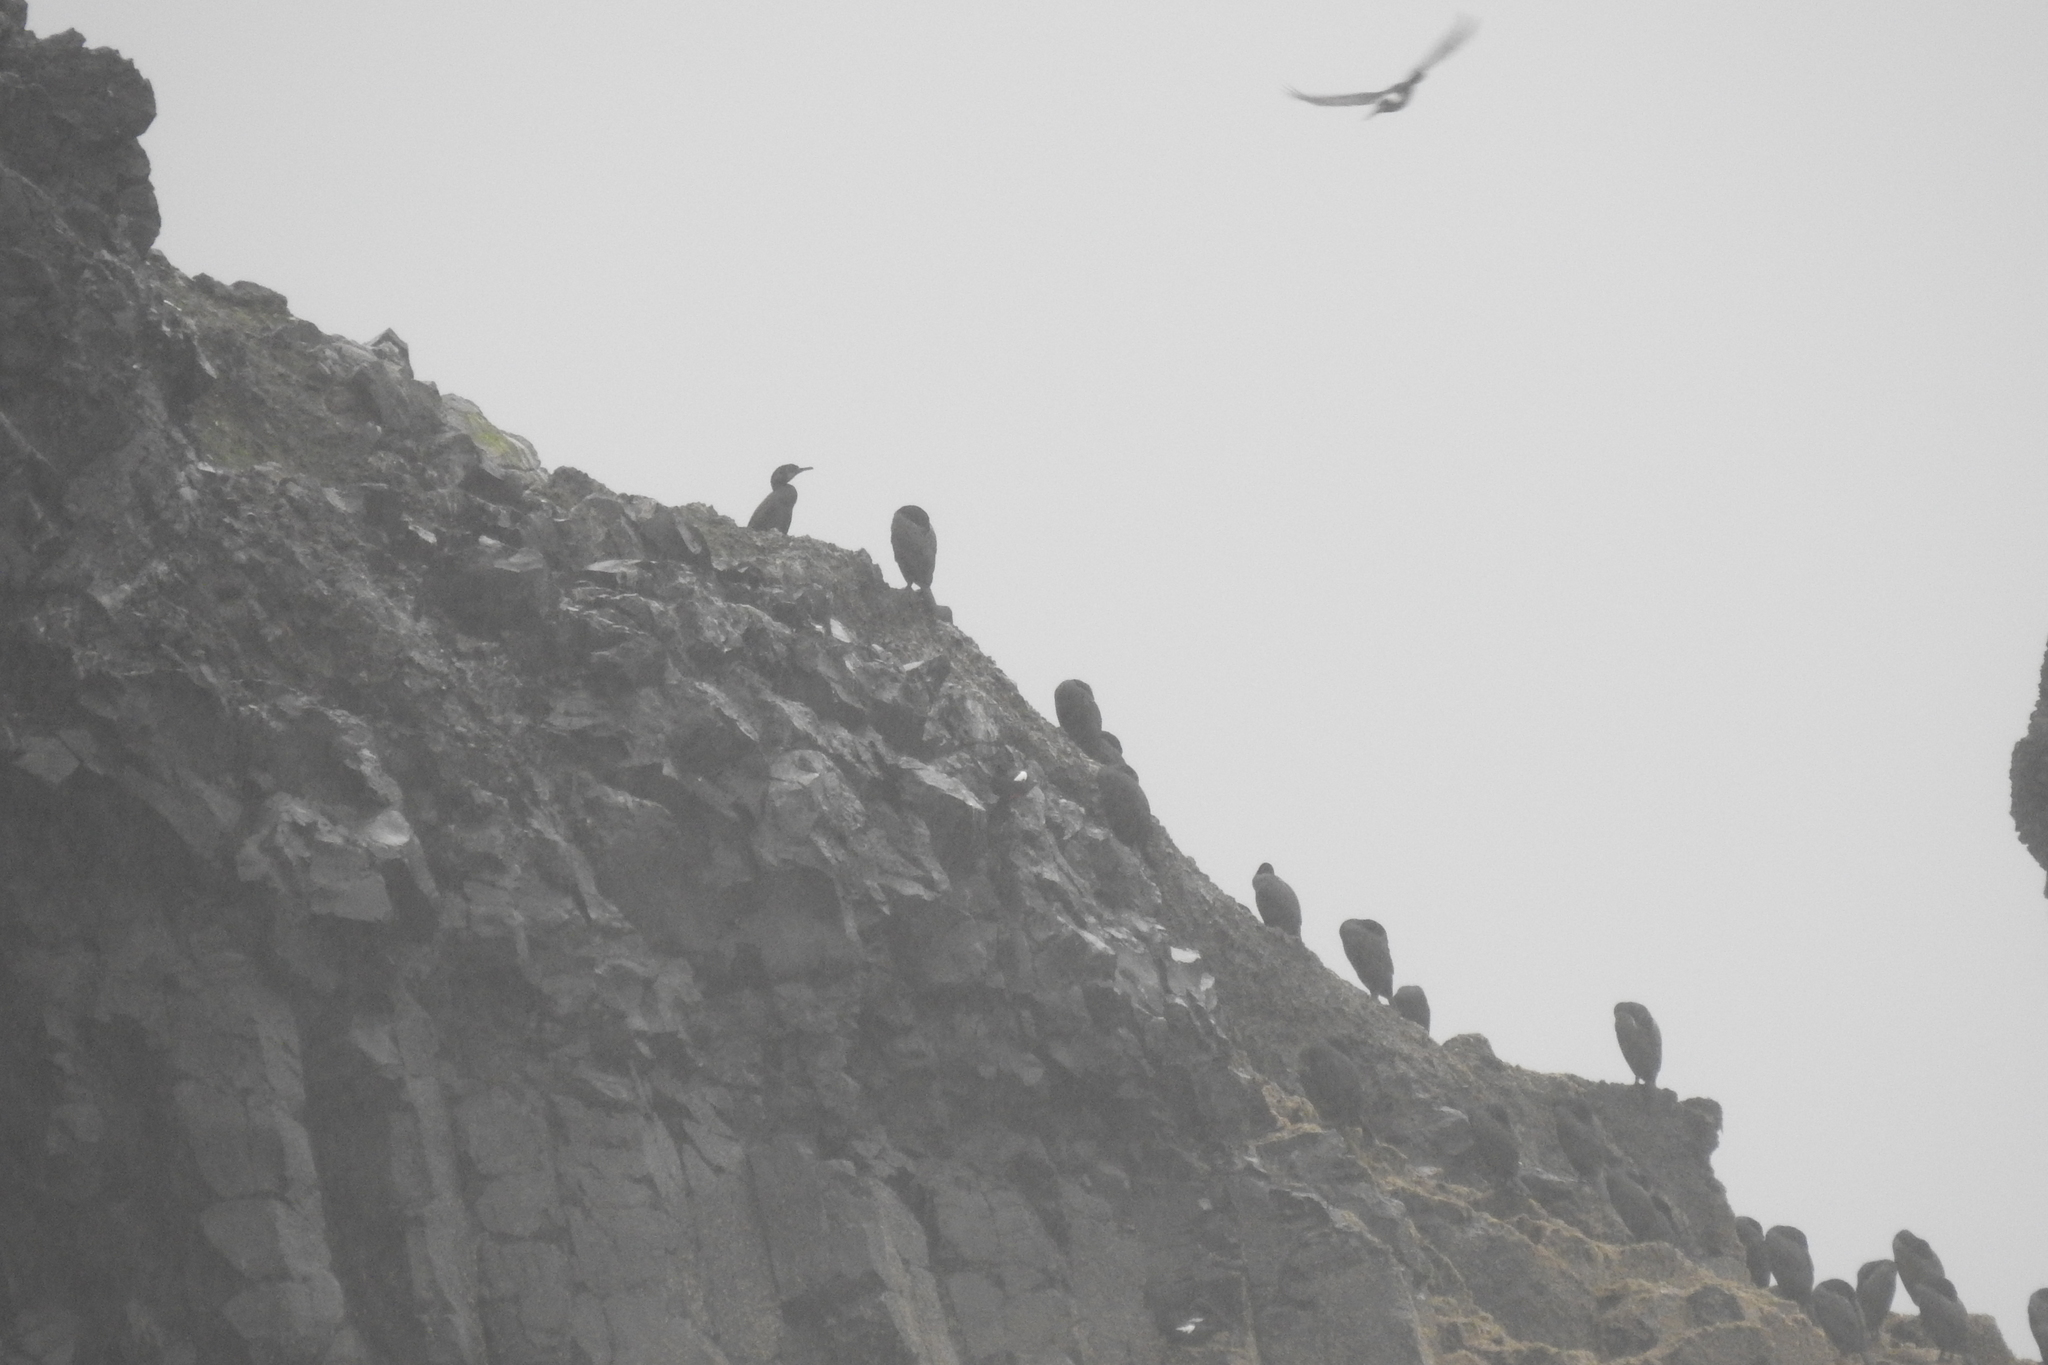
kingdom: Animalia
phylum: Chordata
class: Aves
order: Suliformes
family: Phalacrocoracidae
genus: Phalacrocorax
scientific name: Phalacrocorax pelagicus
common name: Pelagic cormorant
